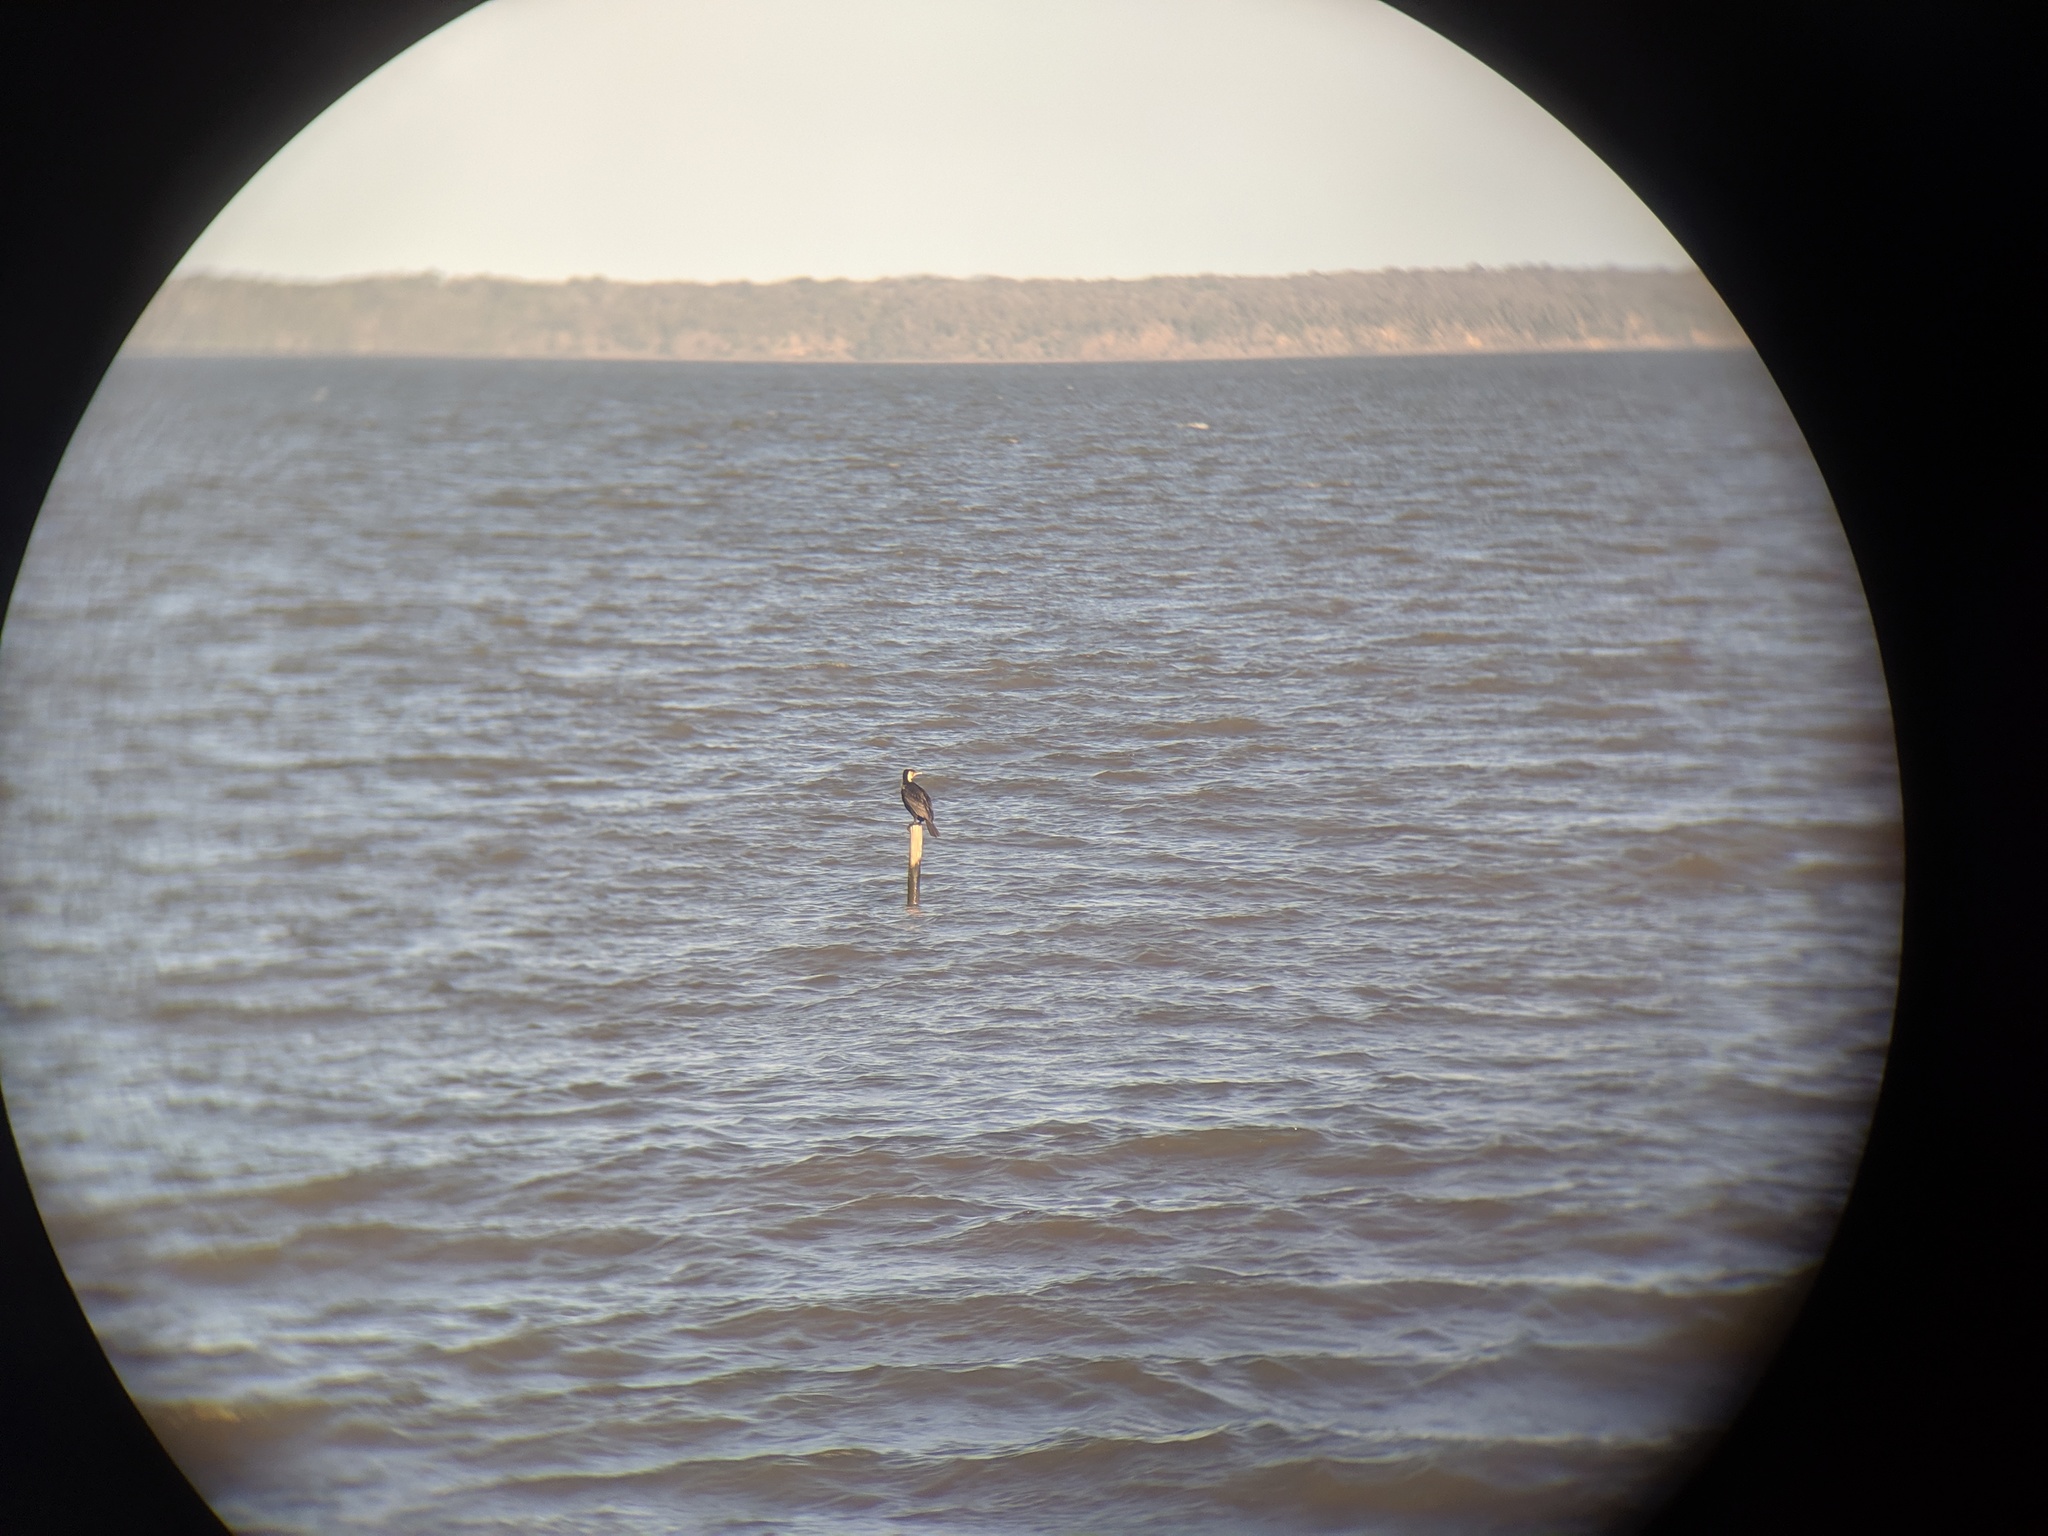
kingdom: Animalia
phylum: Chordata
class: Aves
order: Suliformes
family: Phalacrocoracidae
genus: Phalacrocorax
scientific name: Phalacrocorax carbo
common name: Great cormorant
